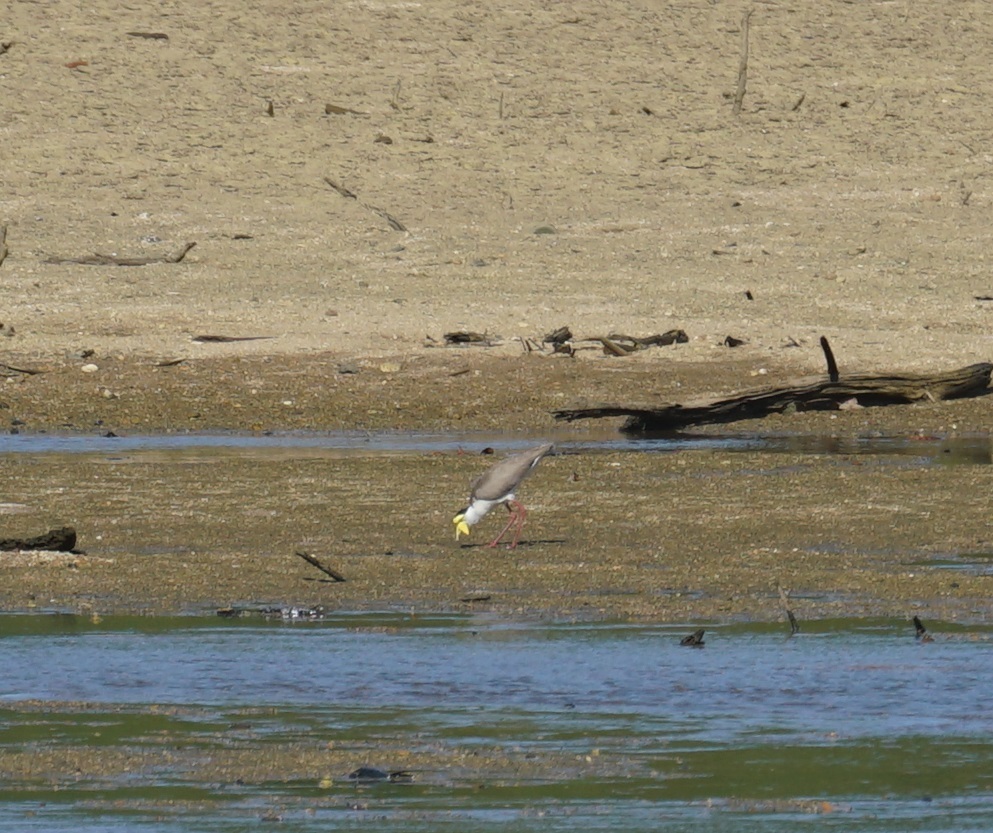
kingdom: Animalia
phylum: Chordata
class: Aves
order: Charadriiformes
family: Charadriidae
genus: Vanellus
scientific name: Vanellus miles
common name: Masked lapwing
